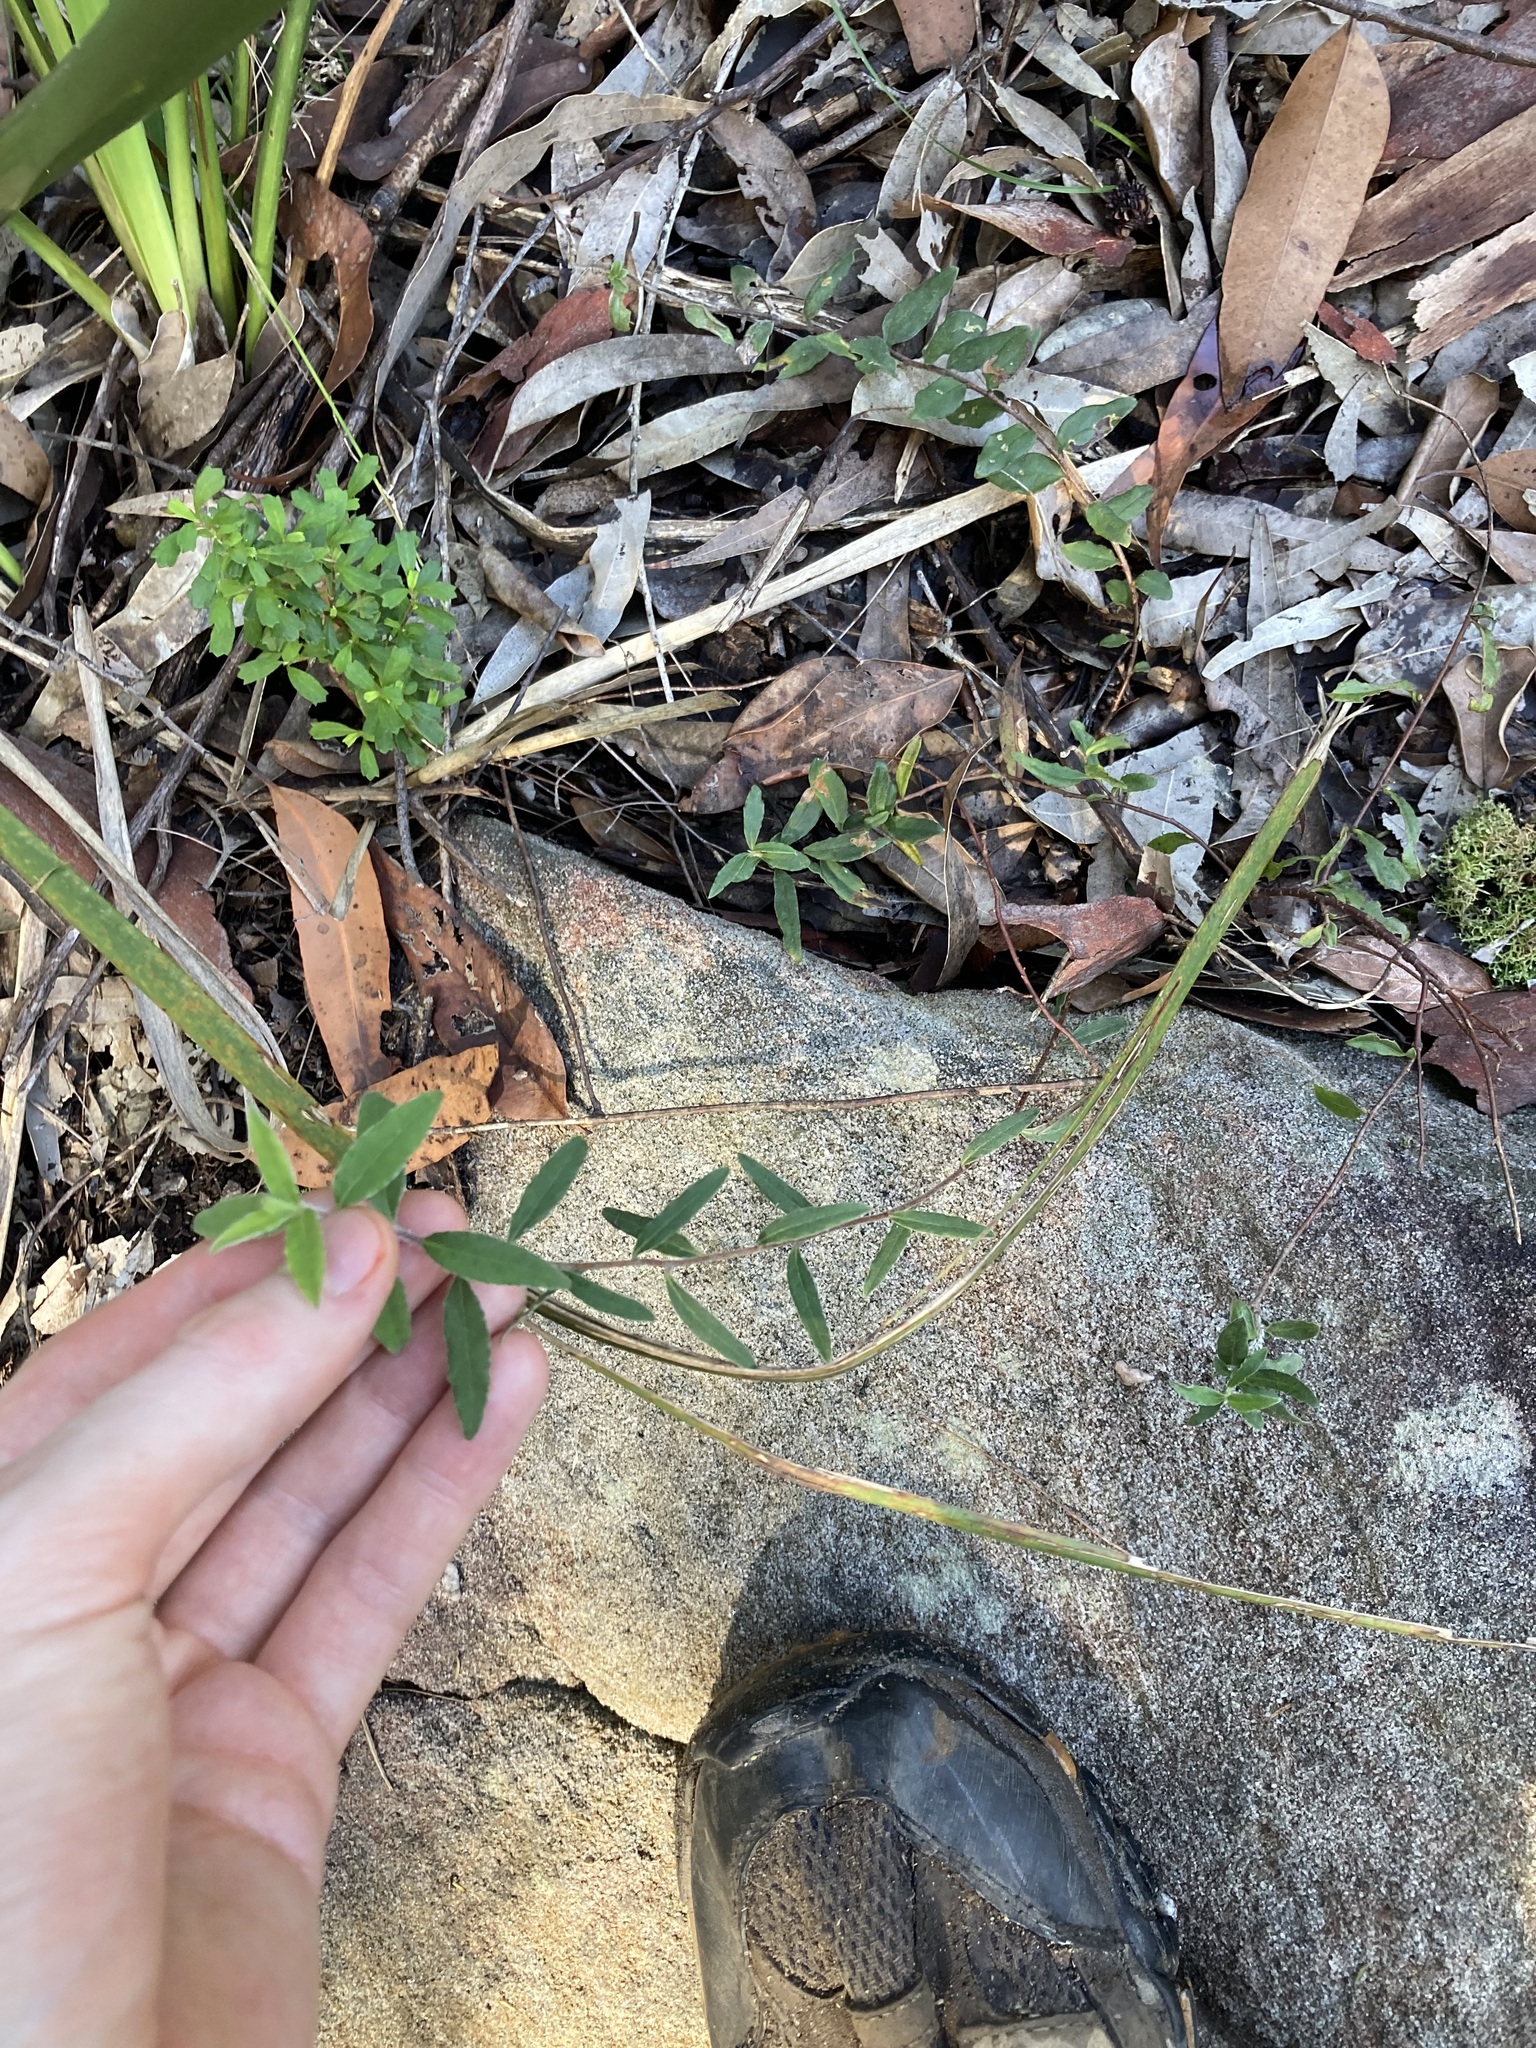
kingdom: Plantae
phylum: Tracheophyta
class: Magnoliopsida
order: Apiales
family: Pittosporaceae
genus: Billardiera
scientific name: Billardiera scandens
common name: Apple-berry
